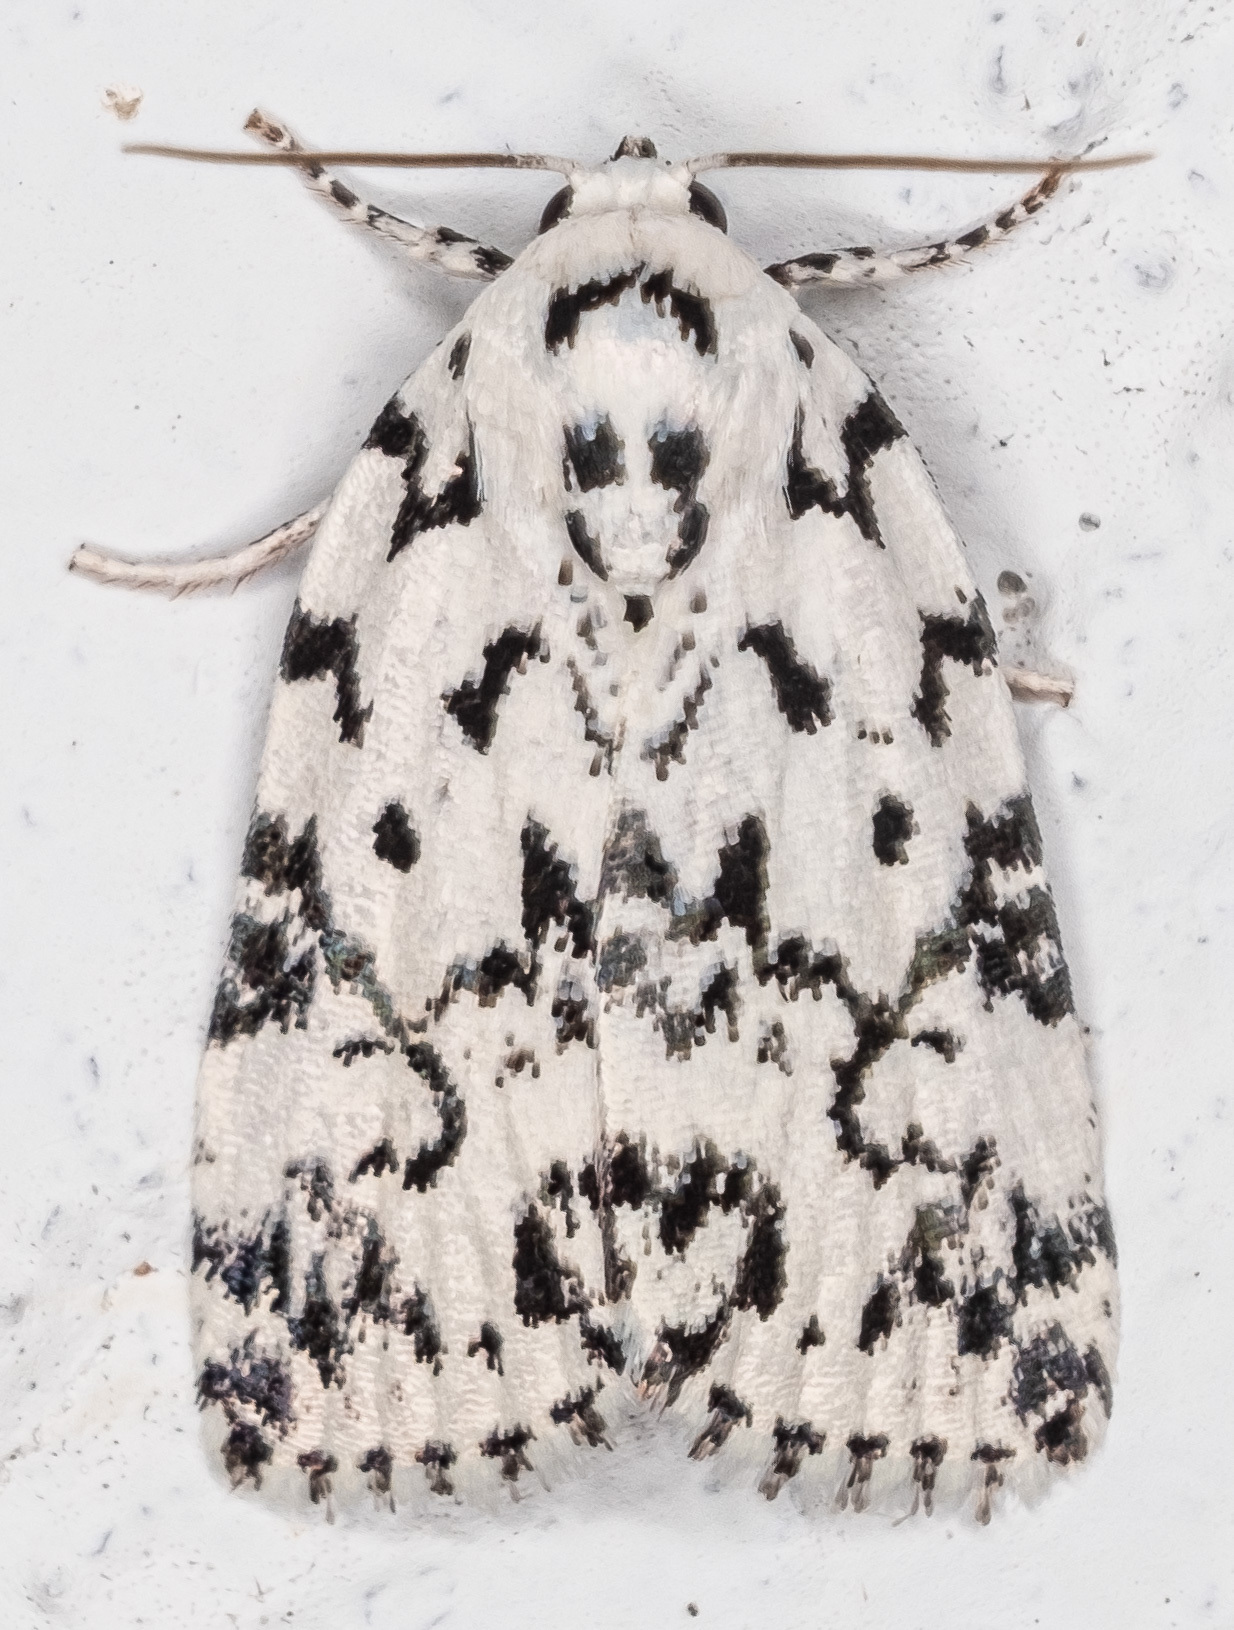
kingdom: Animalia
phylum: Arthropoda
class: Insecta
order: Lepidoptera
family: Noctuidae
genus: Polygrammate
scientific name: Polygrammate hebraeicum
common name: Hebrew moth
